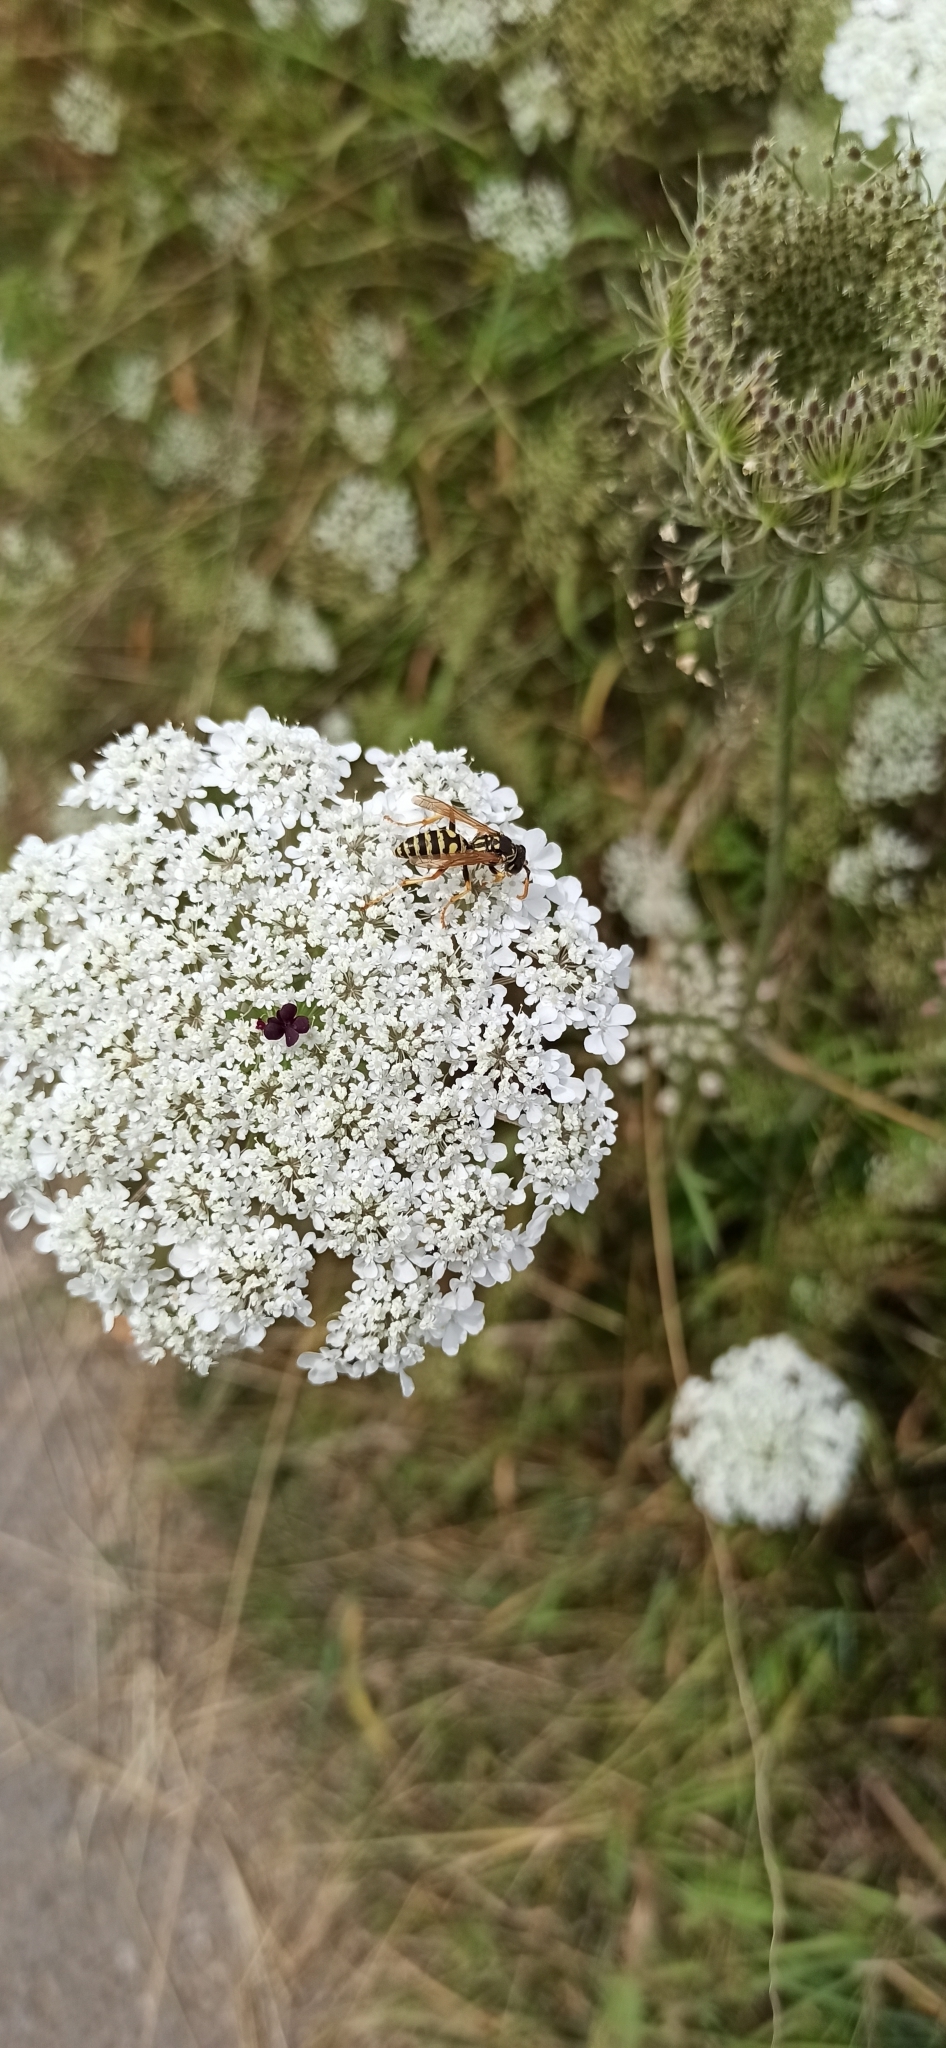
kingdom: Animalia
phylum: Arthropoda
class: Insecta
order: Hymenoptera
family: Eumenidae
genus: Polistes
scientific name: Polistes
